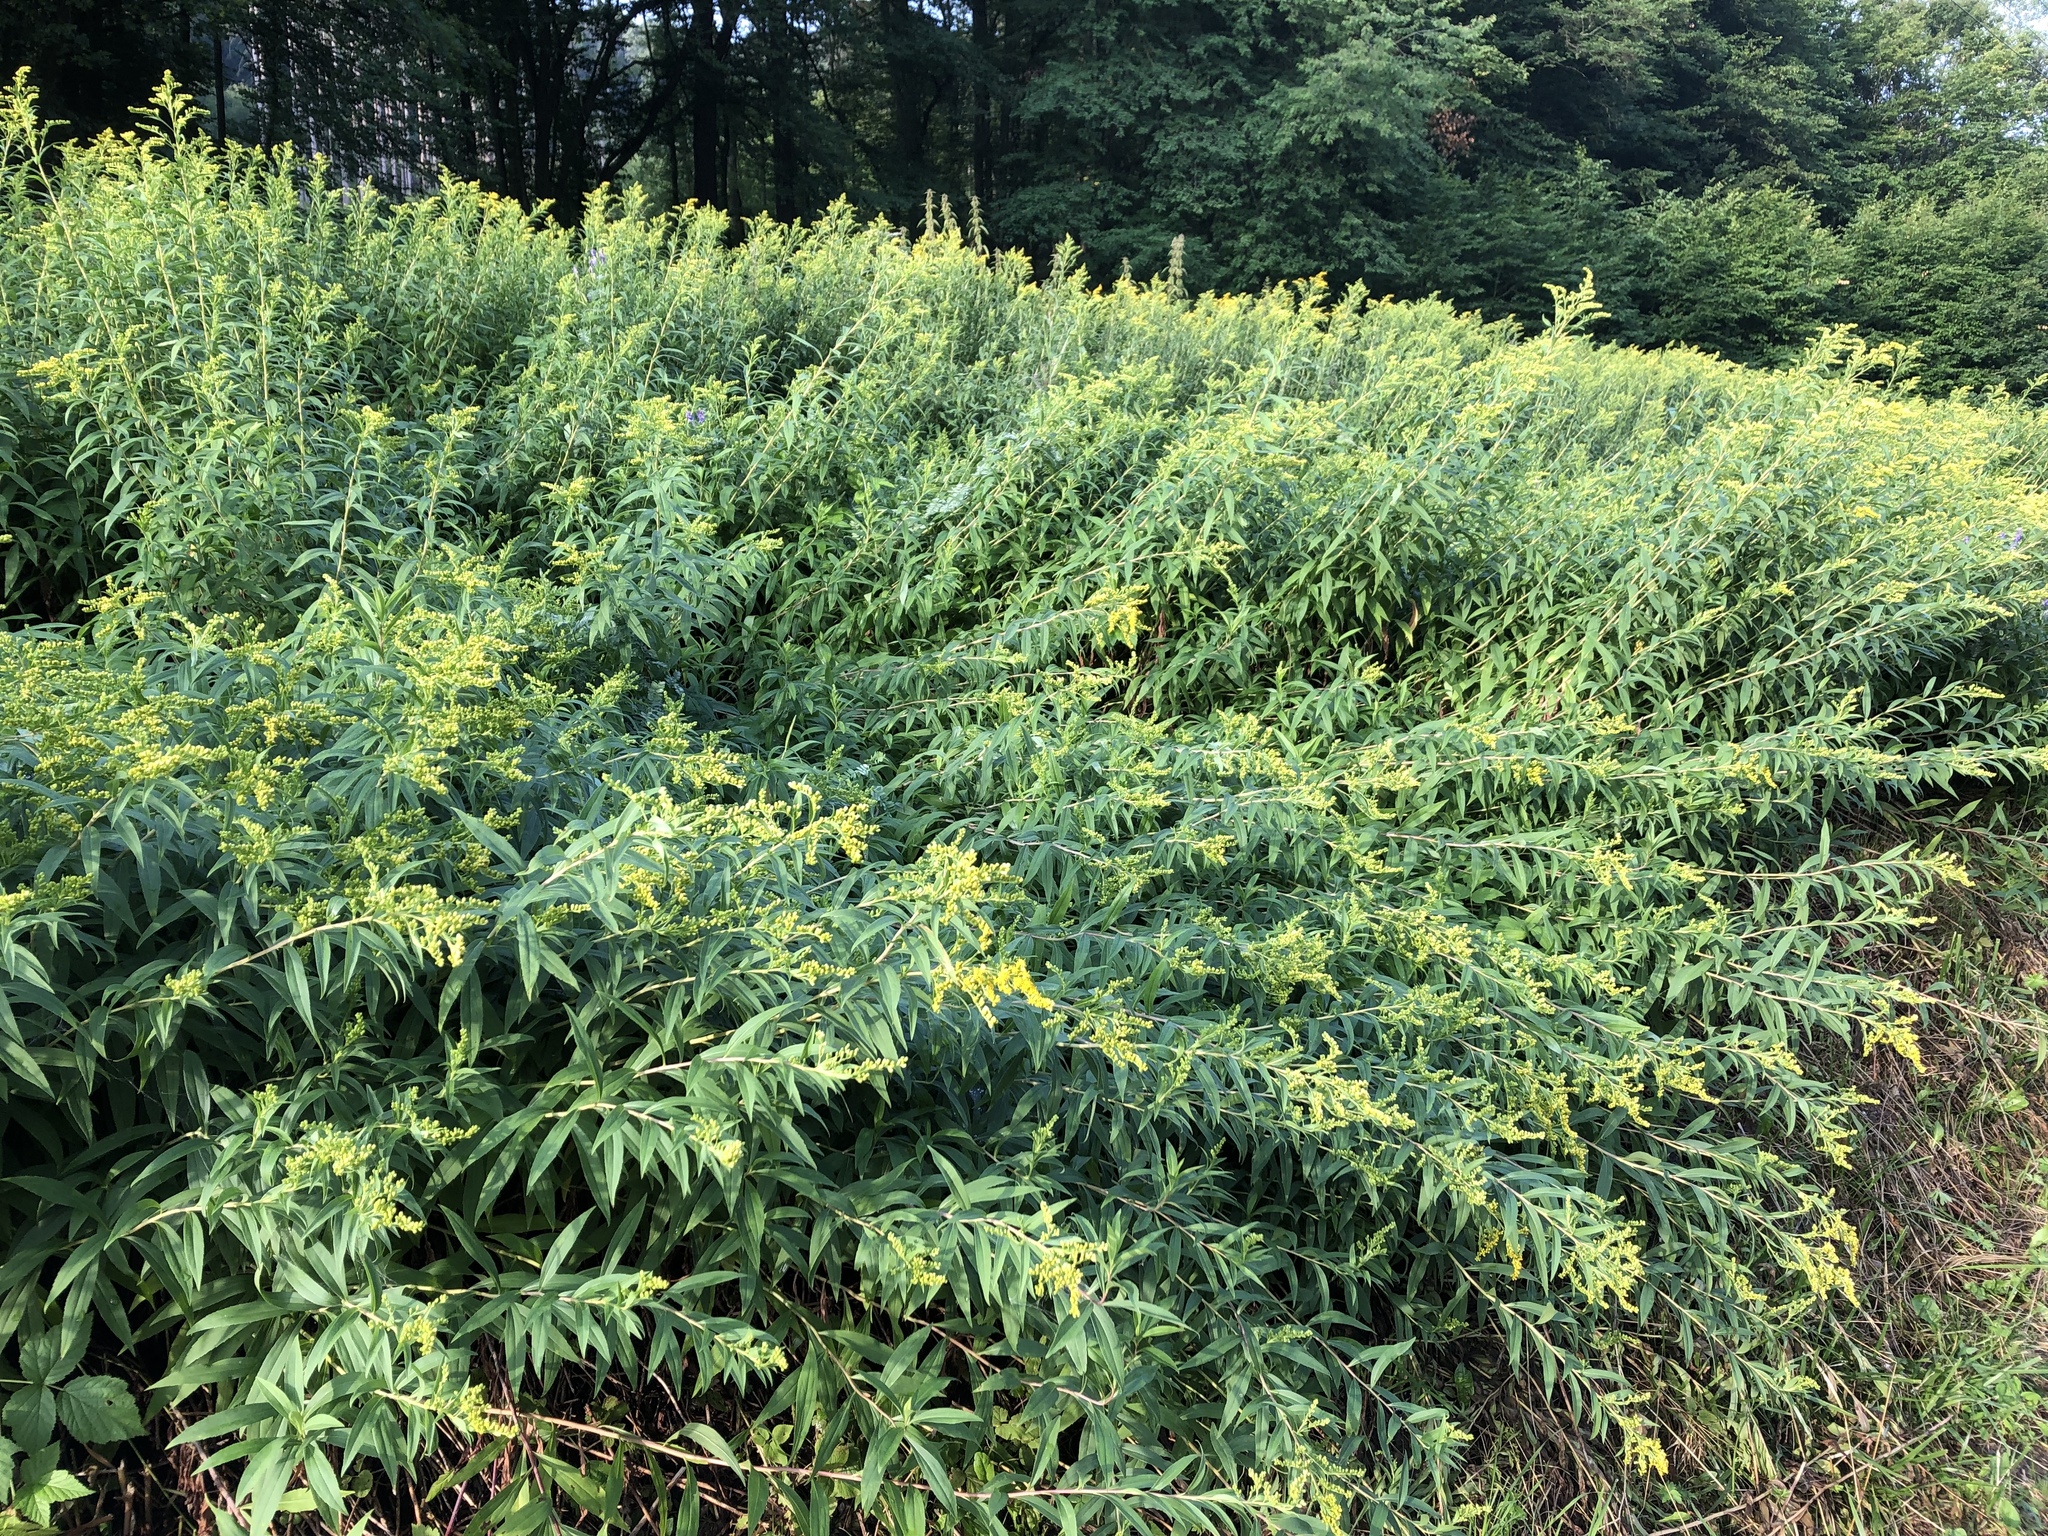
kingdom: Plantae
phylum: Tracheophyta
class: Magnoliopsida
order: Asterales
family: Asteraceae
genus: Solidago
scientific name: Solidago gigantea
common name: Giant goldenrod
